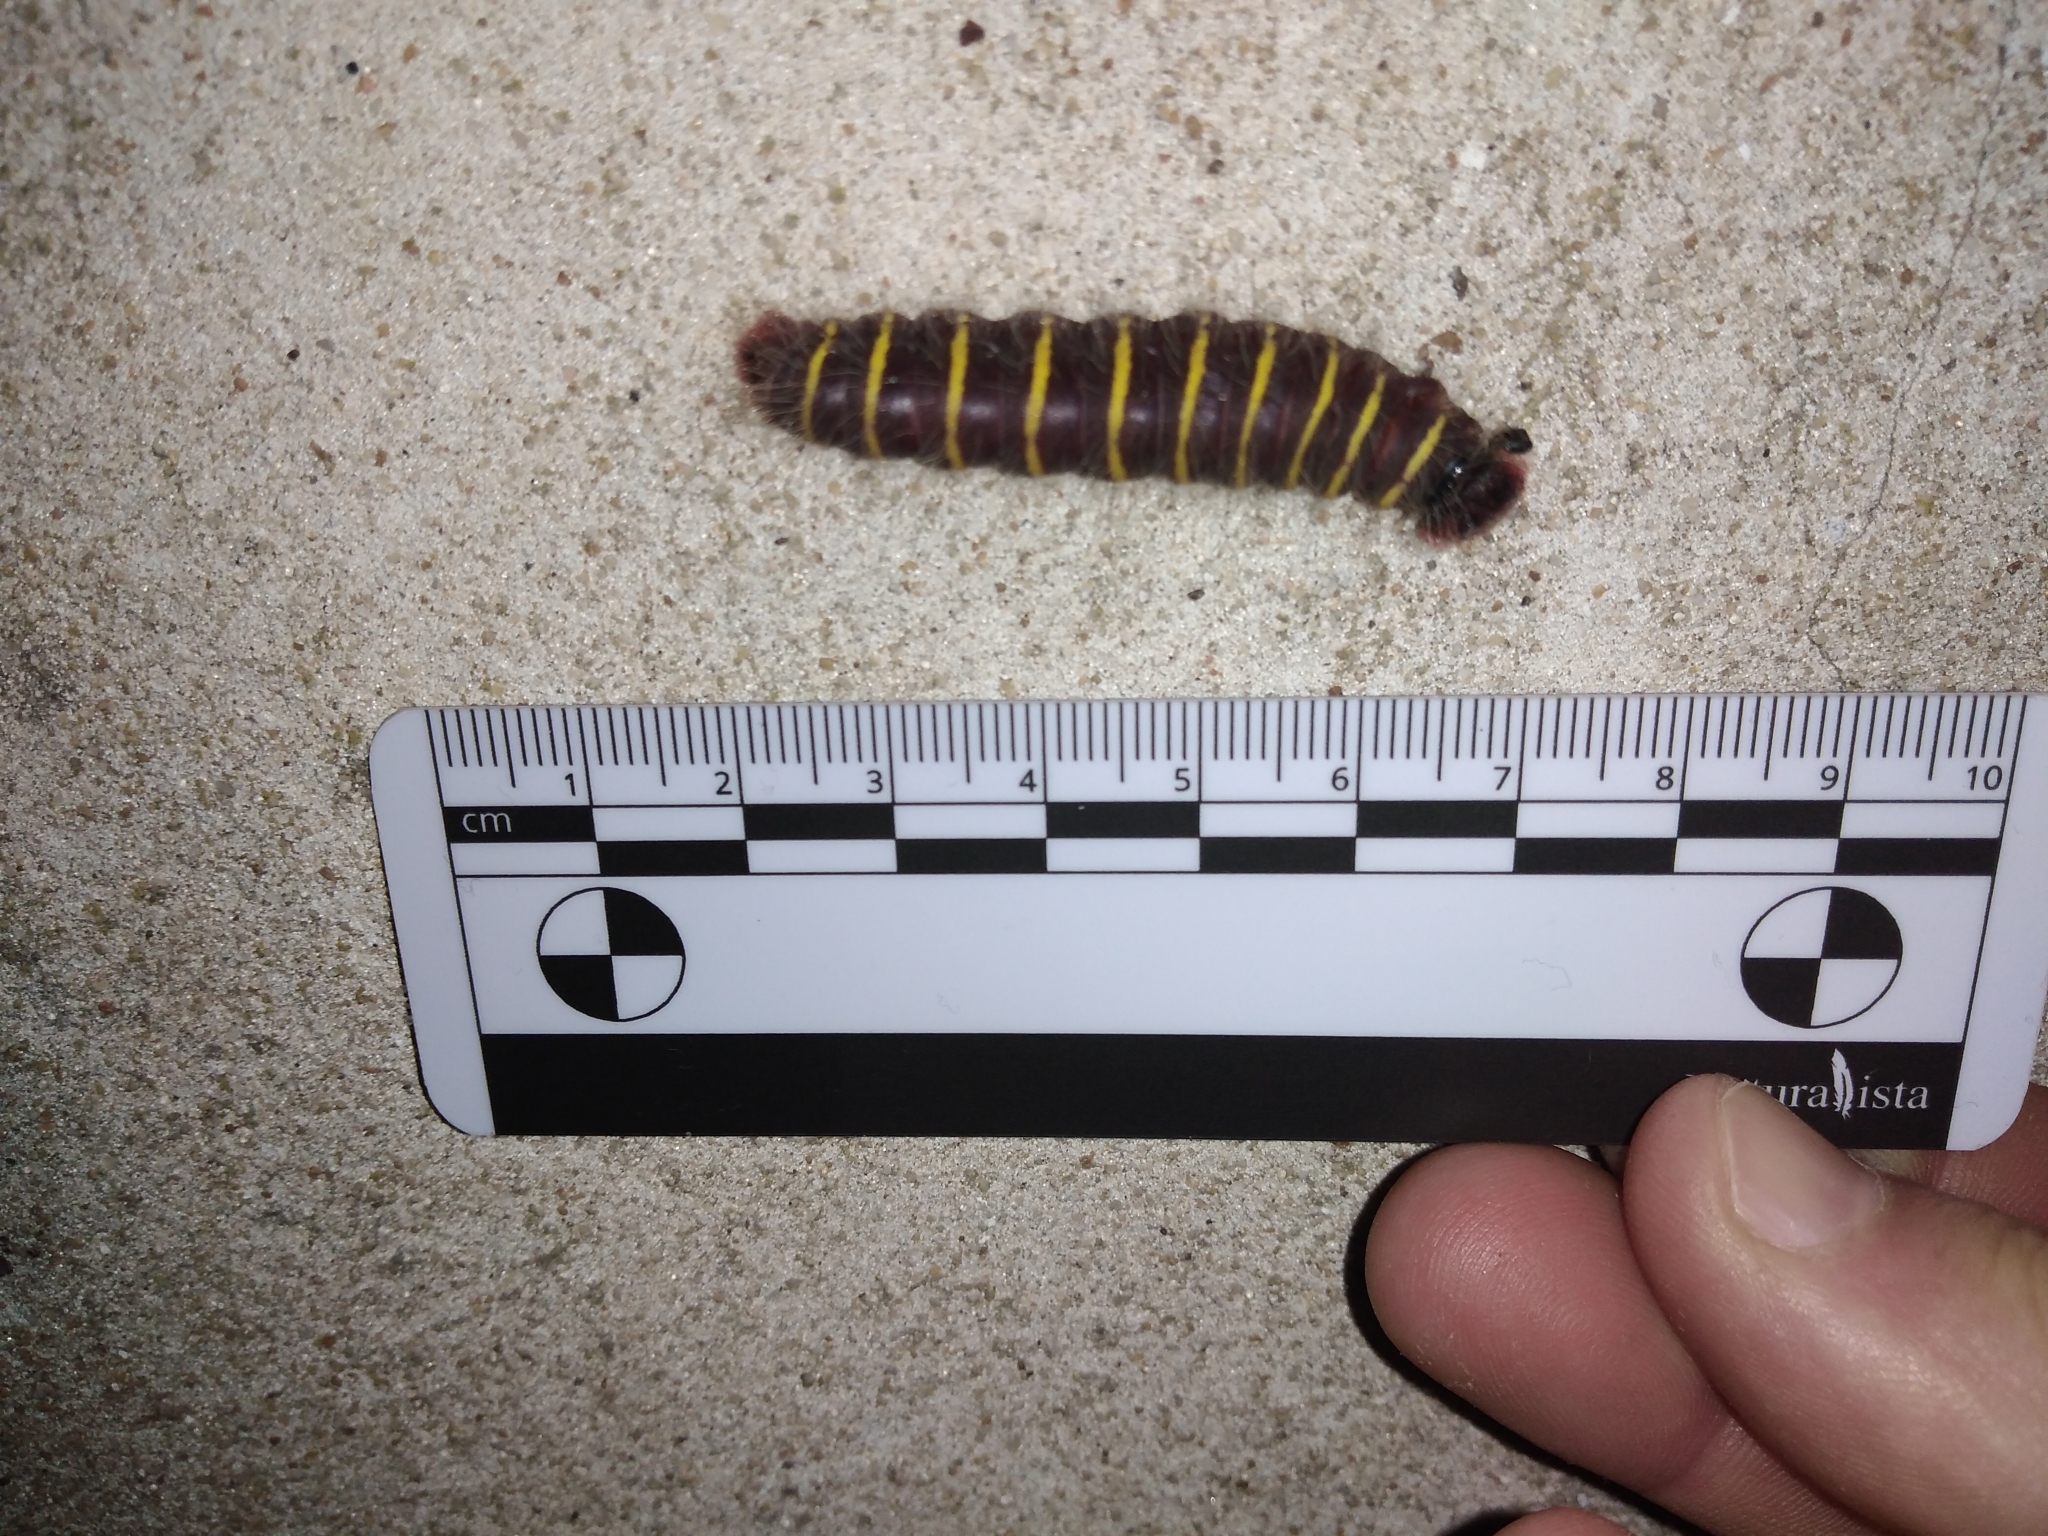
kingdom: Animalia
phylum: Arthropoda
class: Insecta
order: Lepidoptera
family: Hesperiidae
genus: Phocides
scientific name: Phocides polybius
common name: Guava skipper
